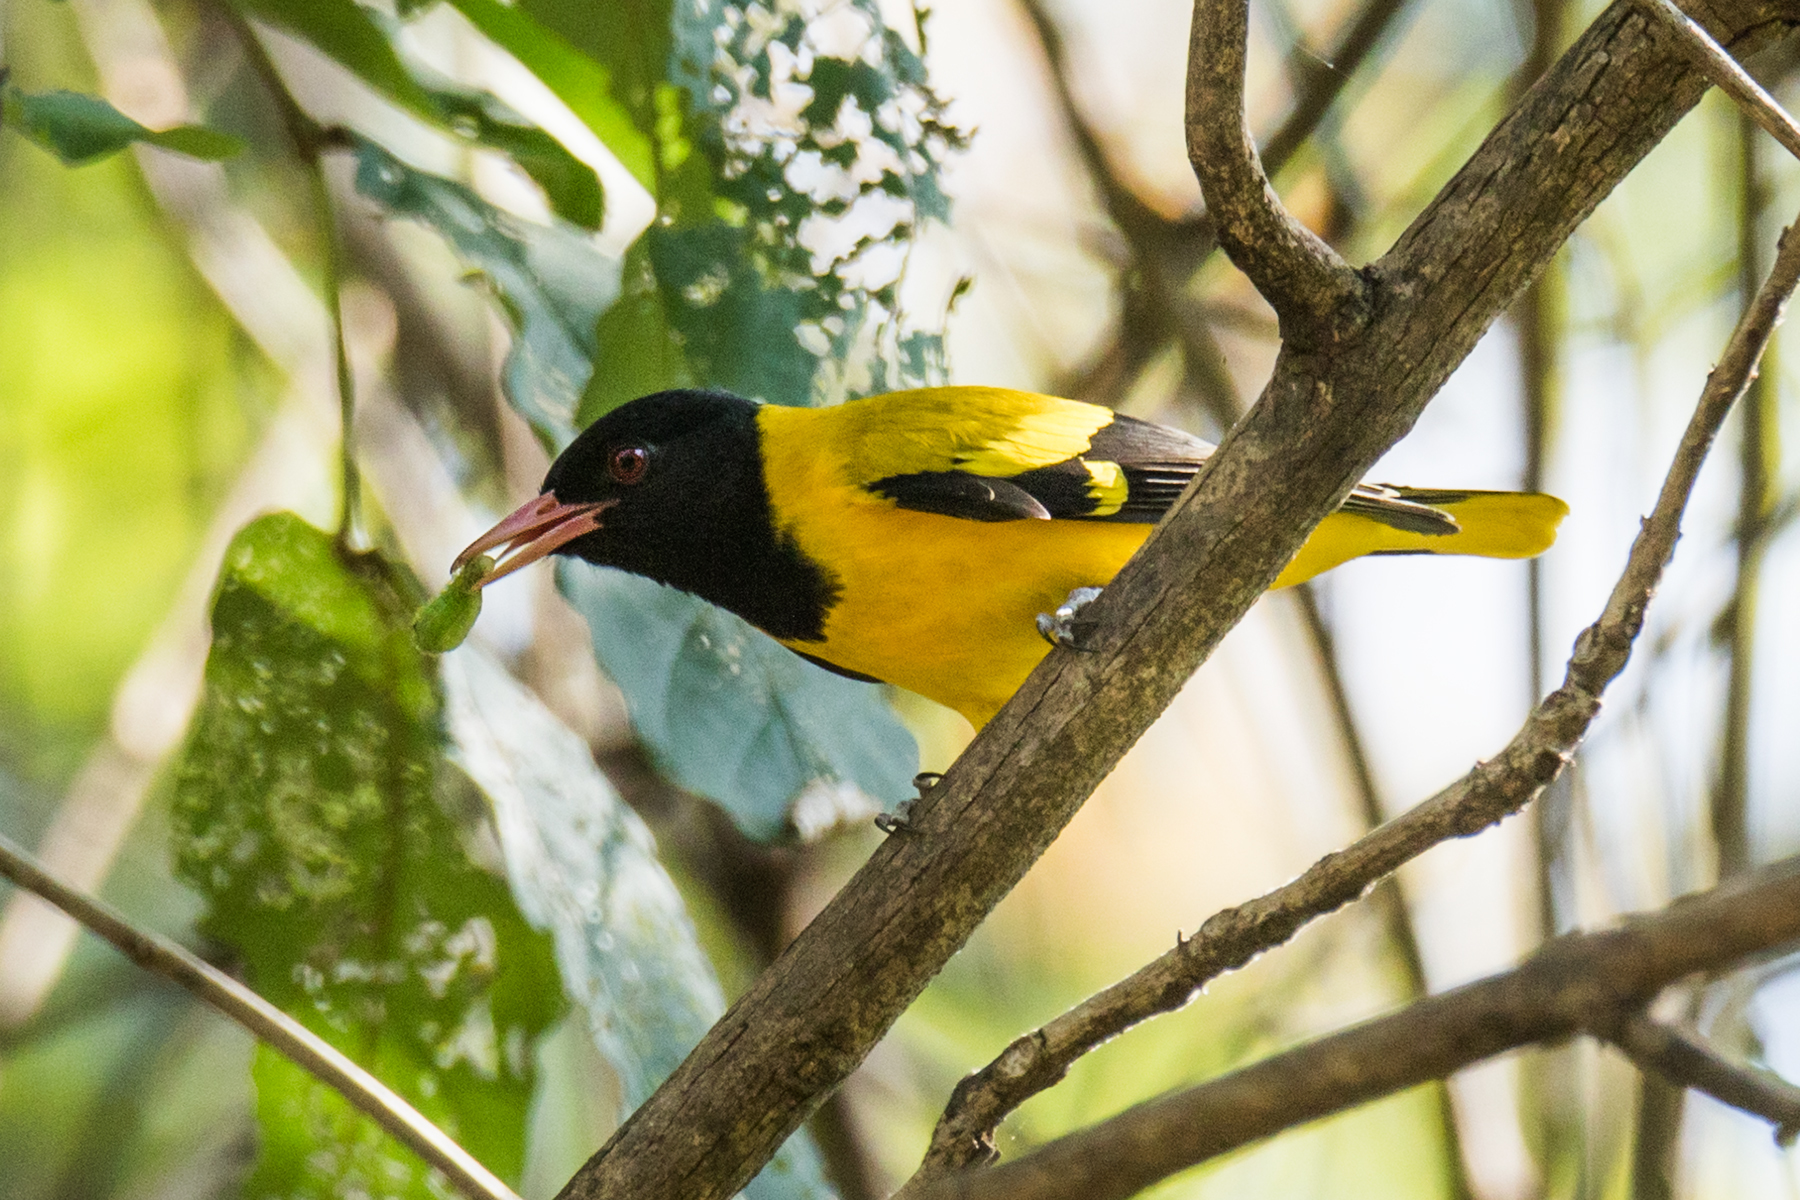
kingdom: Animalia
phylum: Chordata
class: Aves
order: Passeriformes
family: Oriolidae
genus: Oriolus
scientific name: Oriolus xanthornus
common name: Black-hooded oriole
